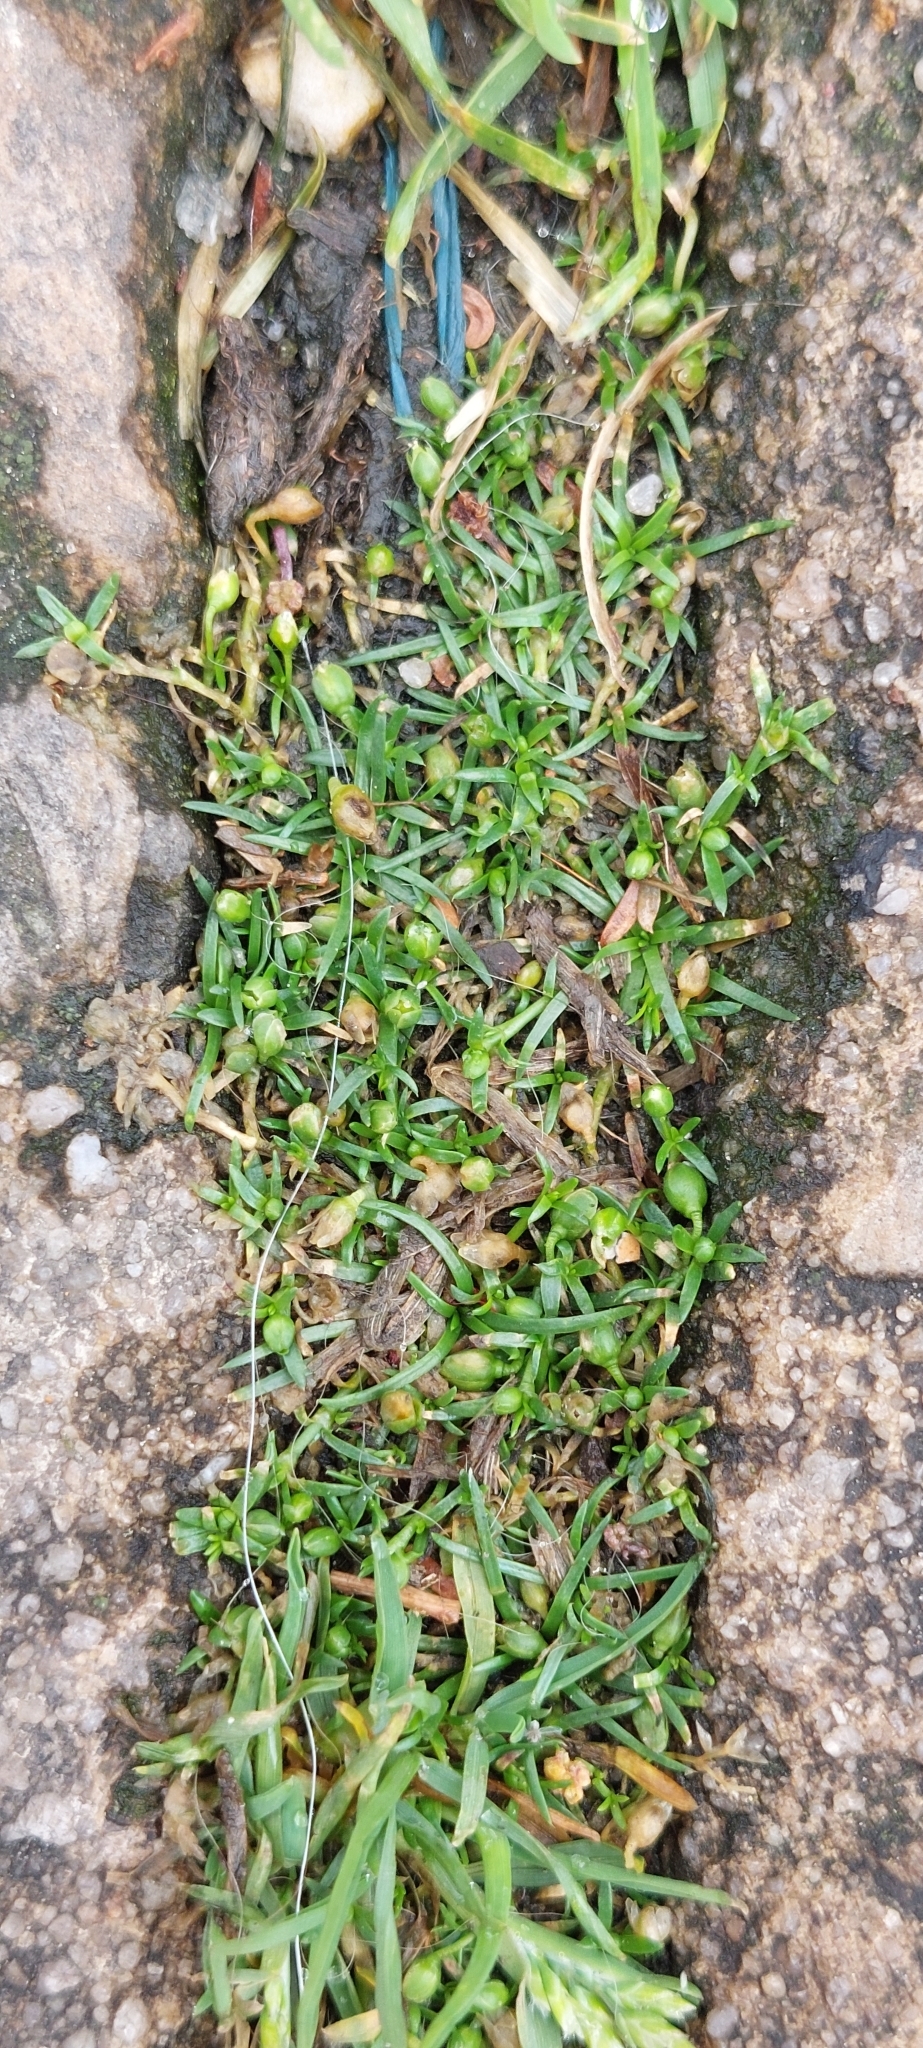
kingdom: Plantae
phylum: Tracheophyta
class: Magnoliopsida
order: Caryophyllales
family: Caryophyllaceae
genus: Sagina
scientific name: Sagina procumbens
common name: Procumbent pearlwort
